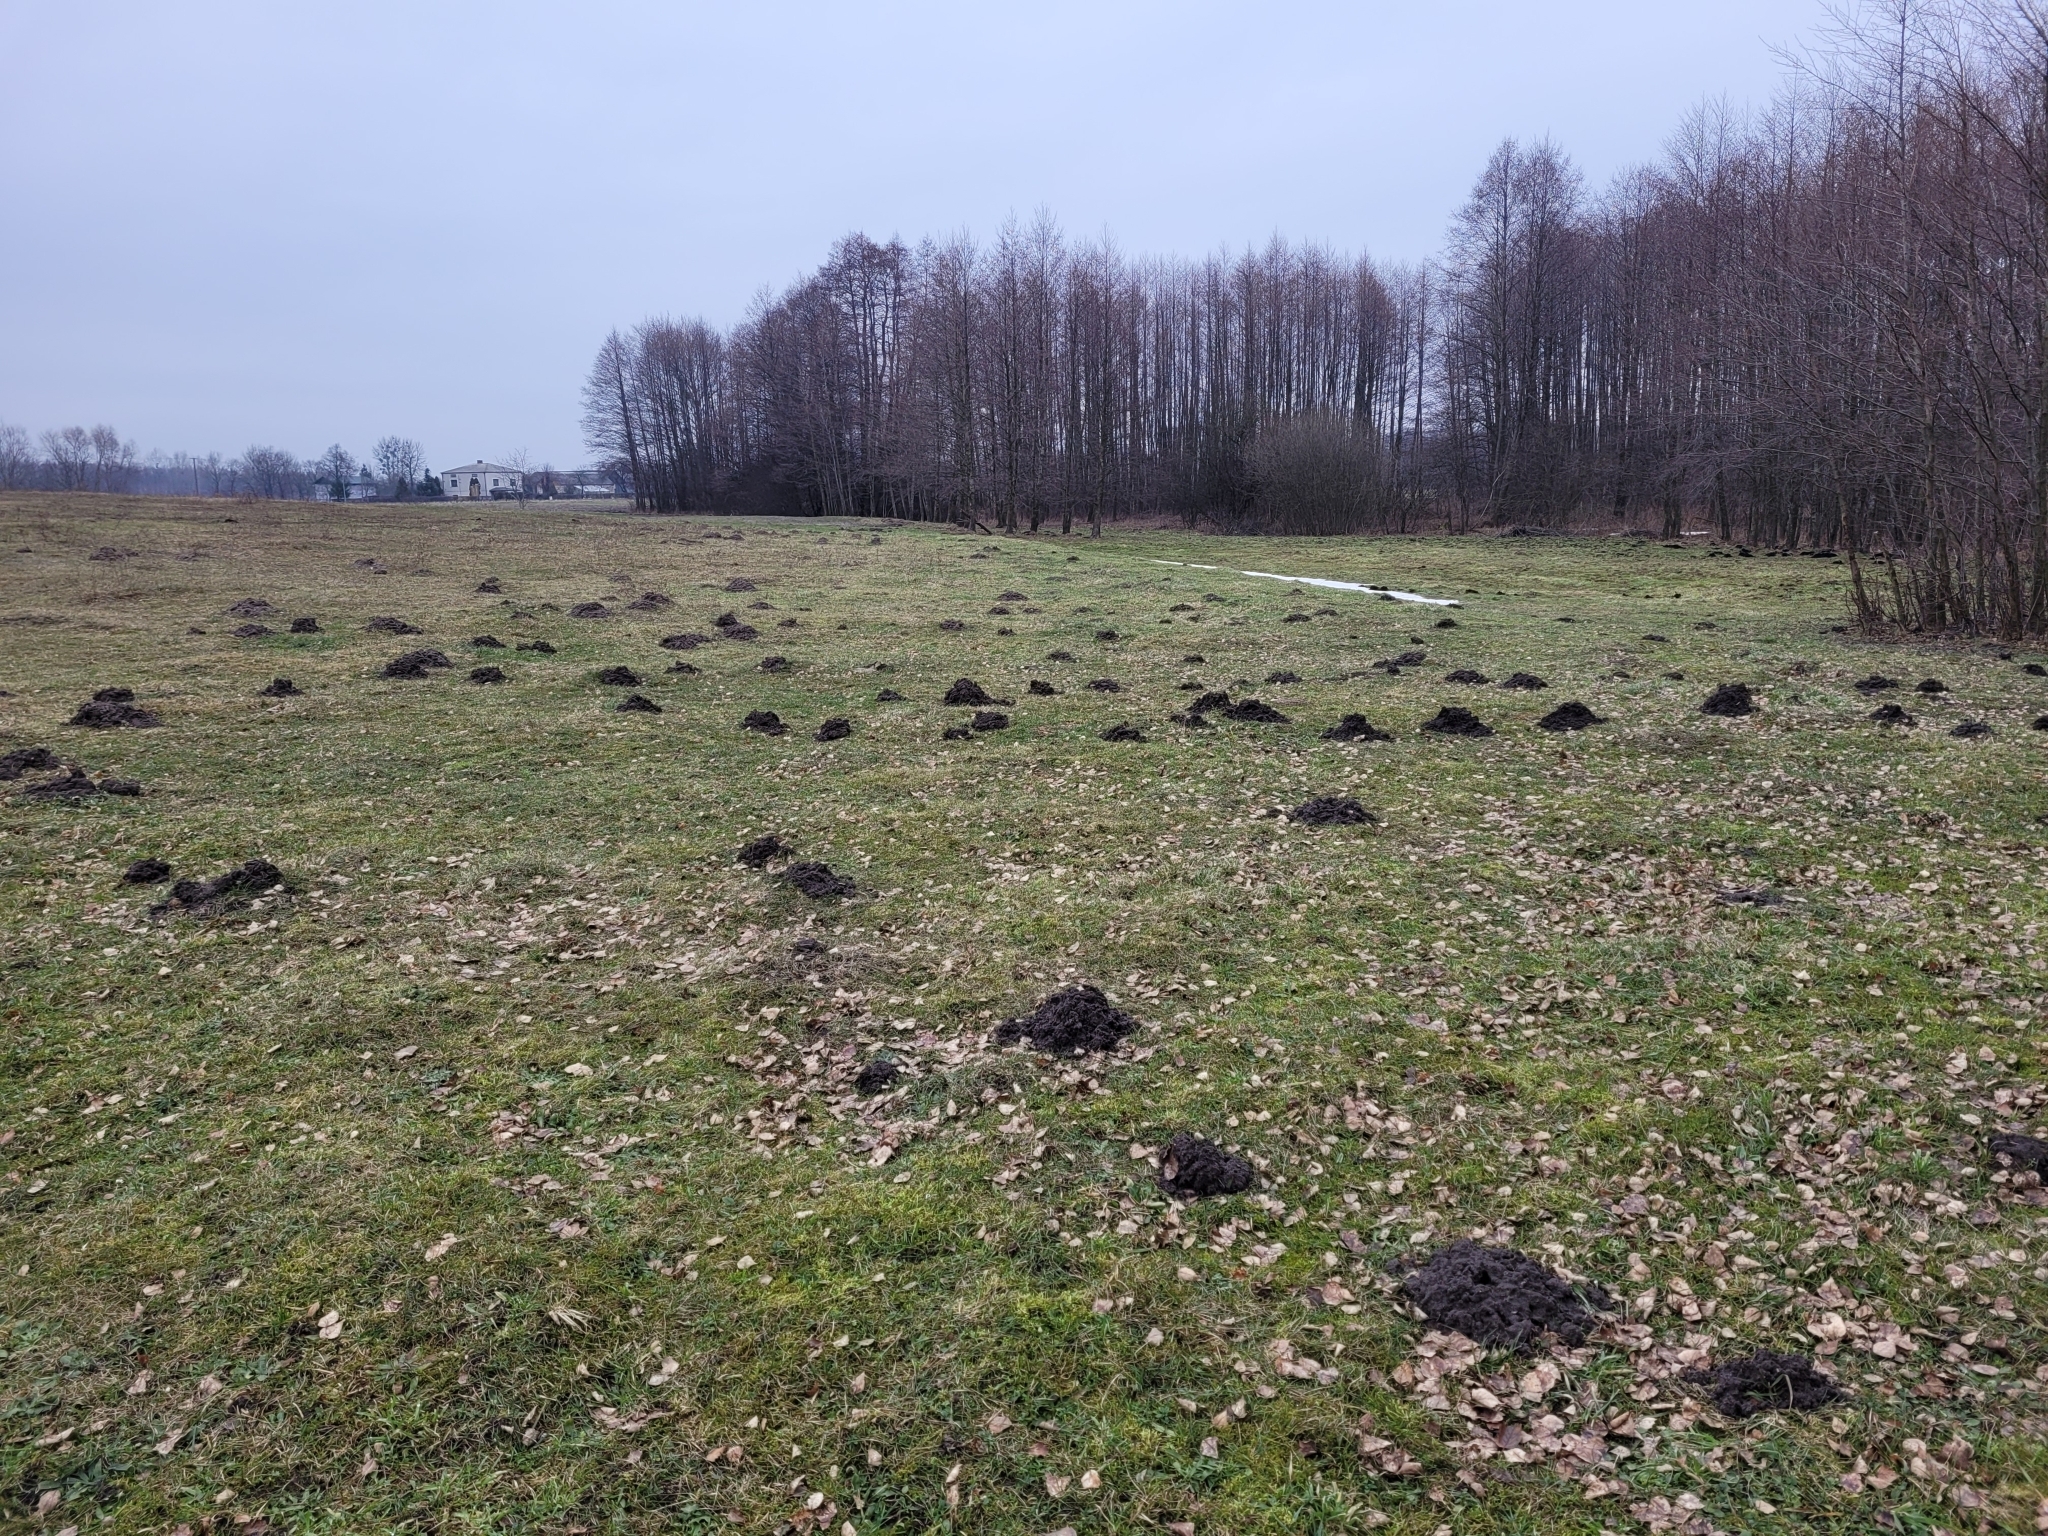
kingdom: Animalia
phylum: Chordata
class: Mammalia
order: Soricomorpha
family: Talpidae
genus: Talpa
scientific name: Talpa europaea
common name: European mole
